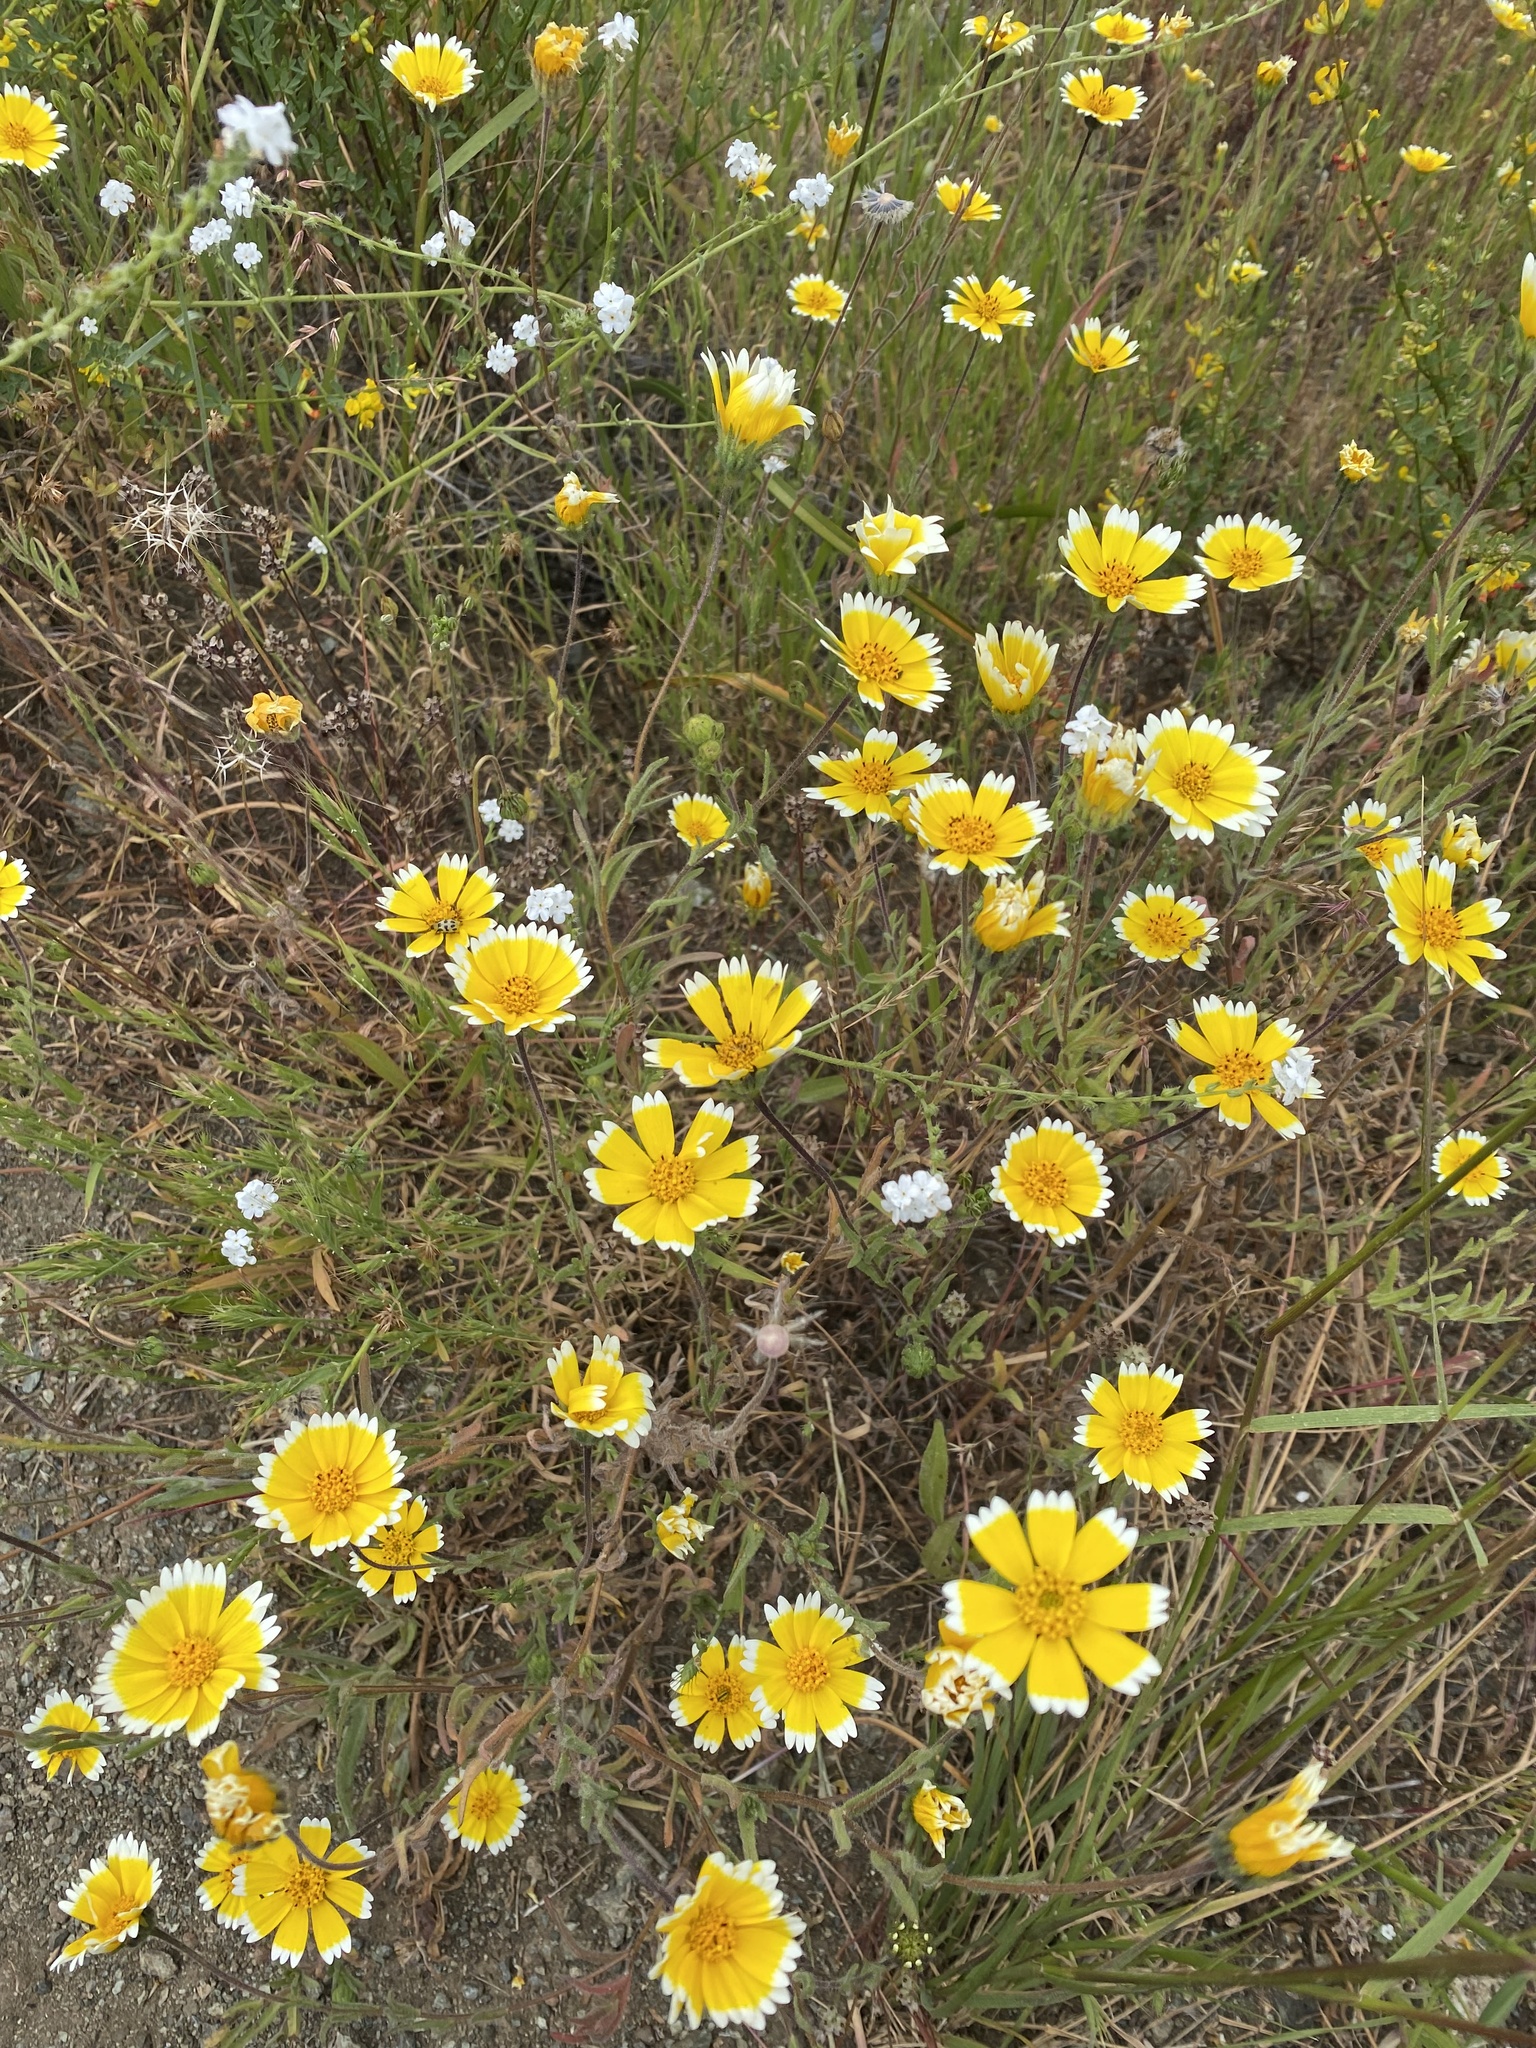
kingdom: Plantae
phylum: Tracheophyta
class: Magnoliopsida
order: Asterales
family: Asteraceae
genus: Layia
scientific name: Layia platyglossa
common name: Tidy-tips
